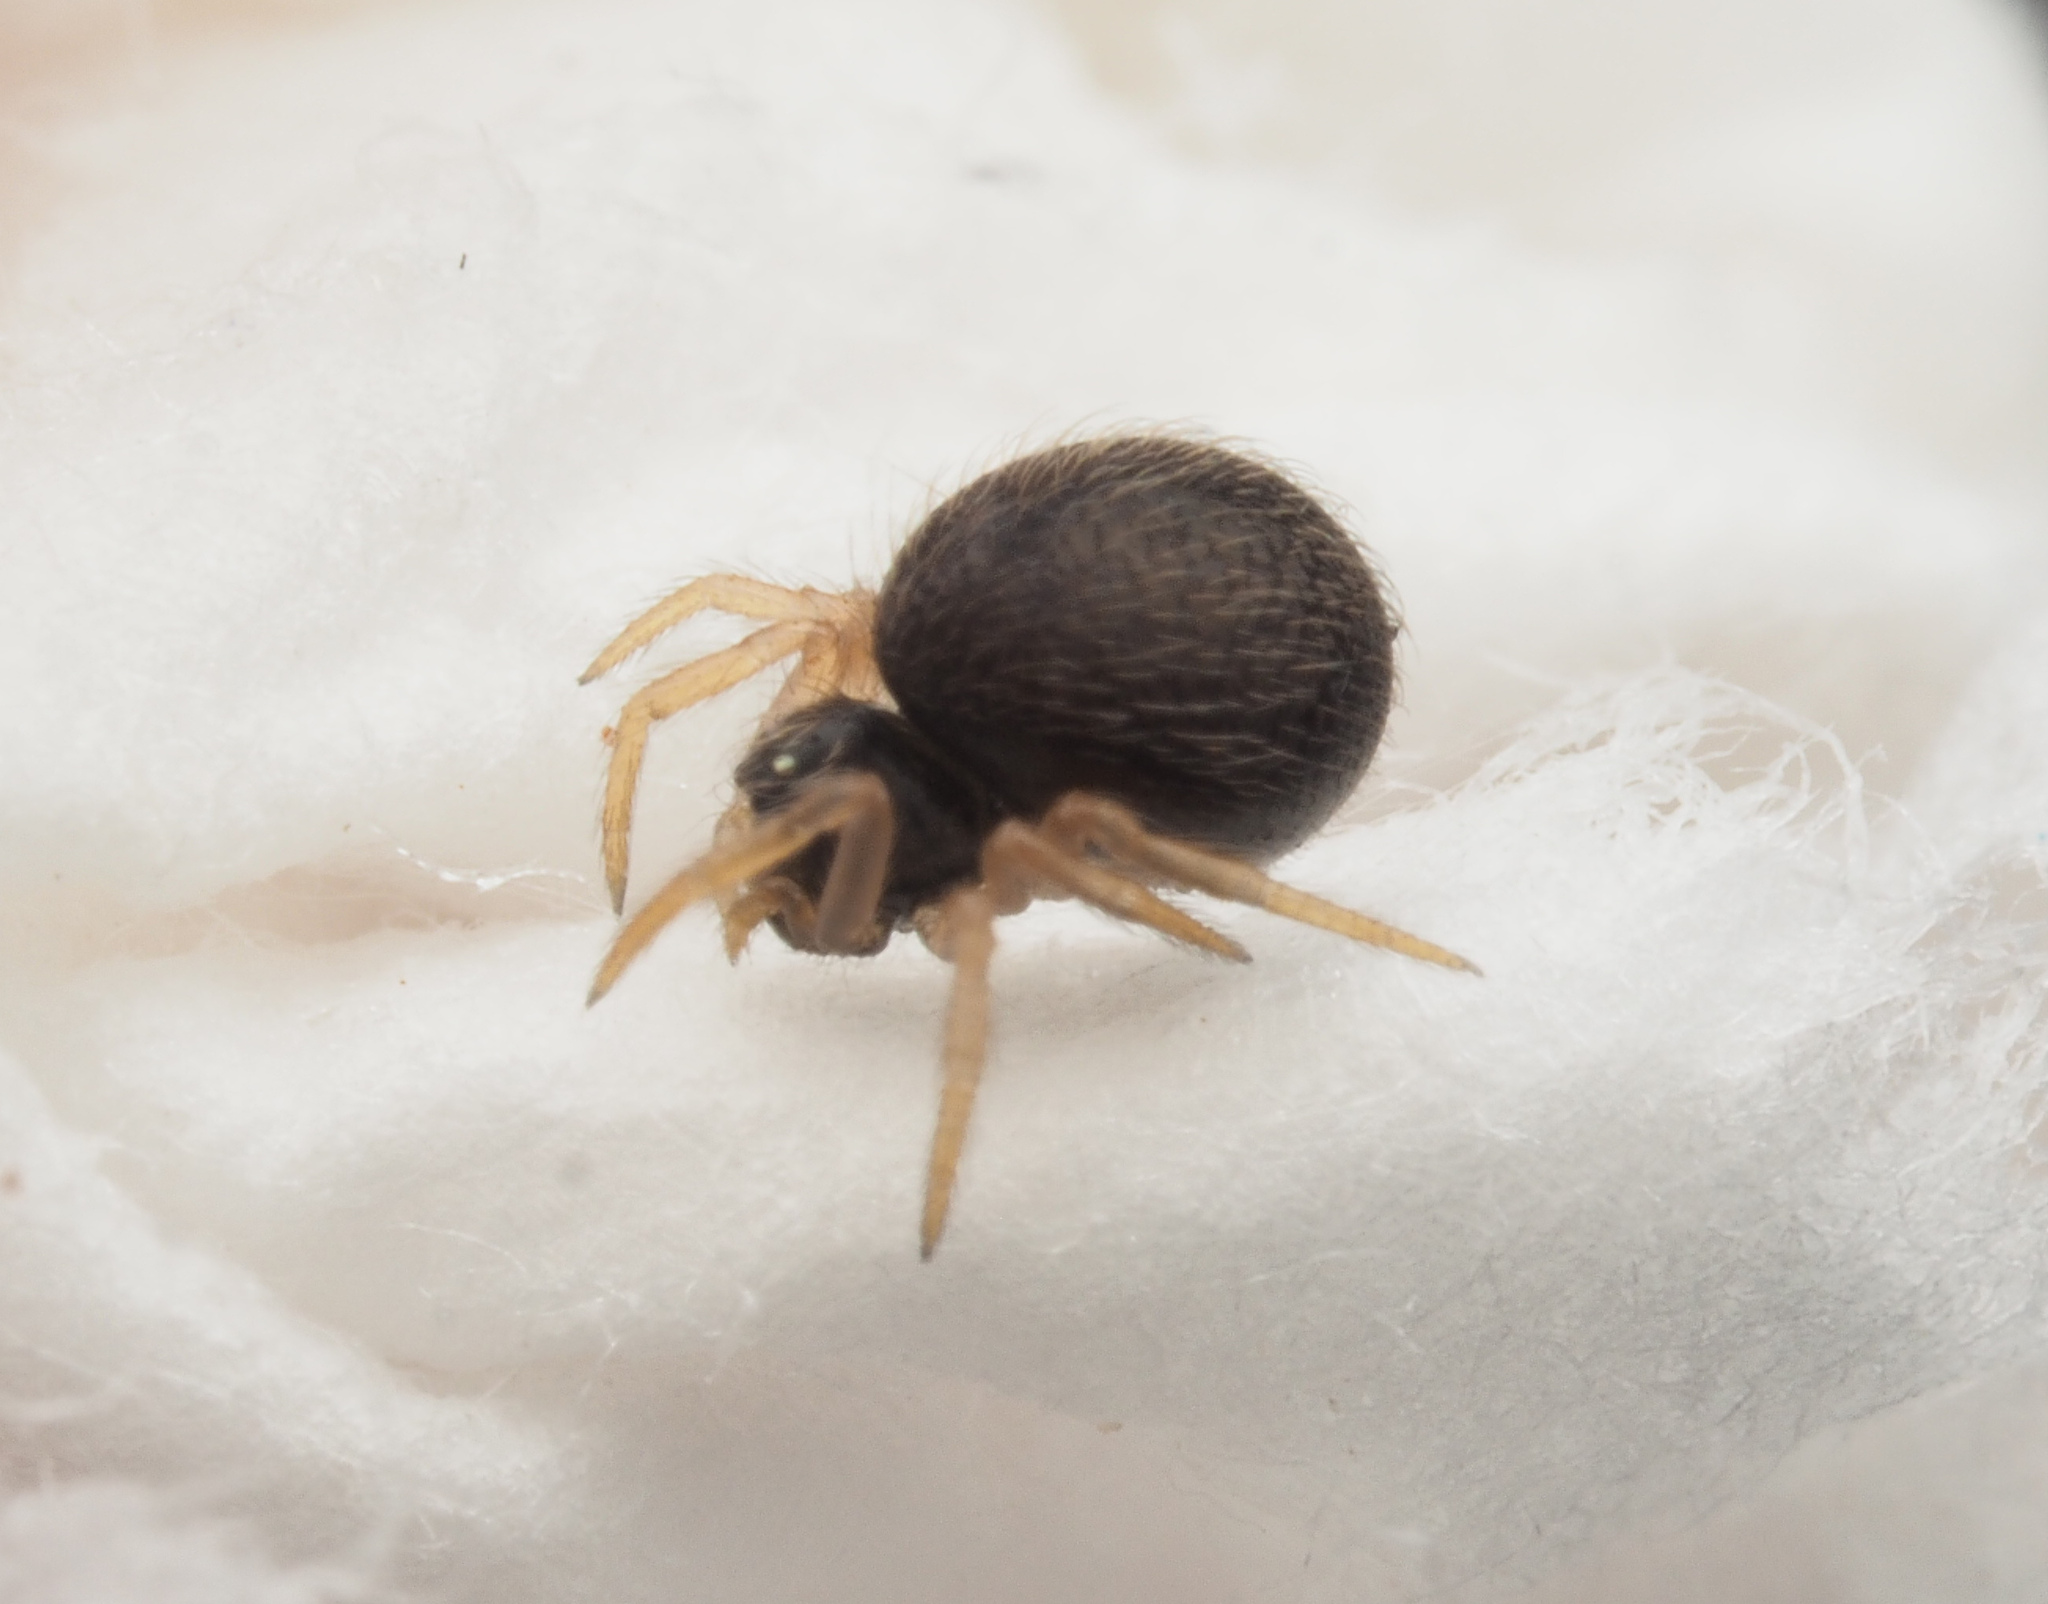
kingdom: Animalia
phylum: Arthropoda
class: Arachnida
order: Araneae
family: Theridiidae
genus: Dipoena
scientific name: Dipoena
